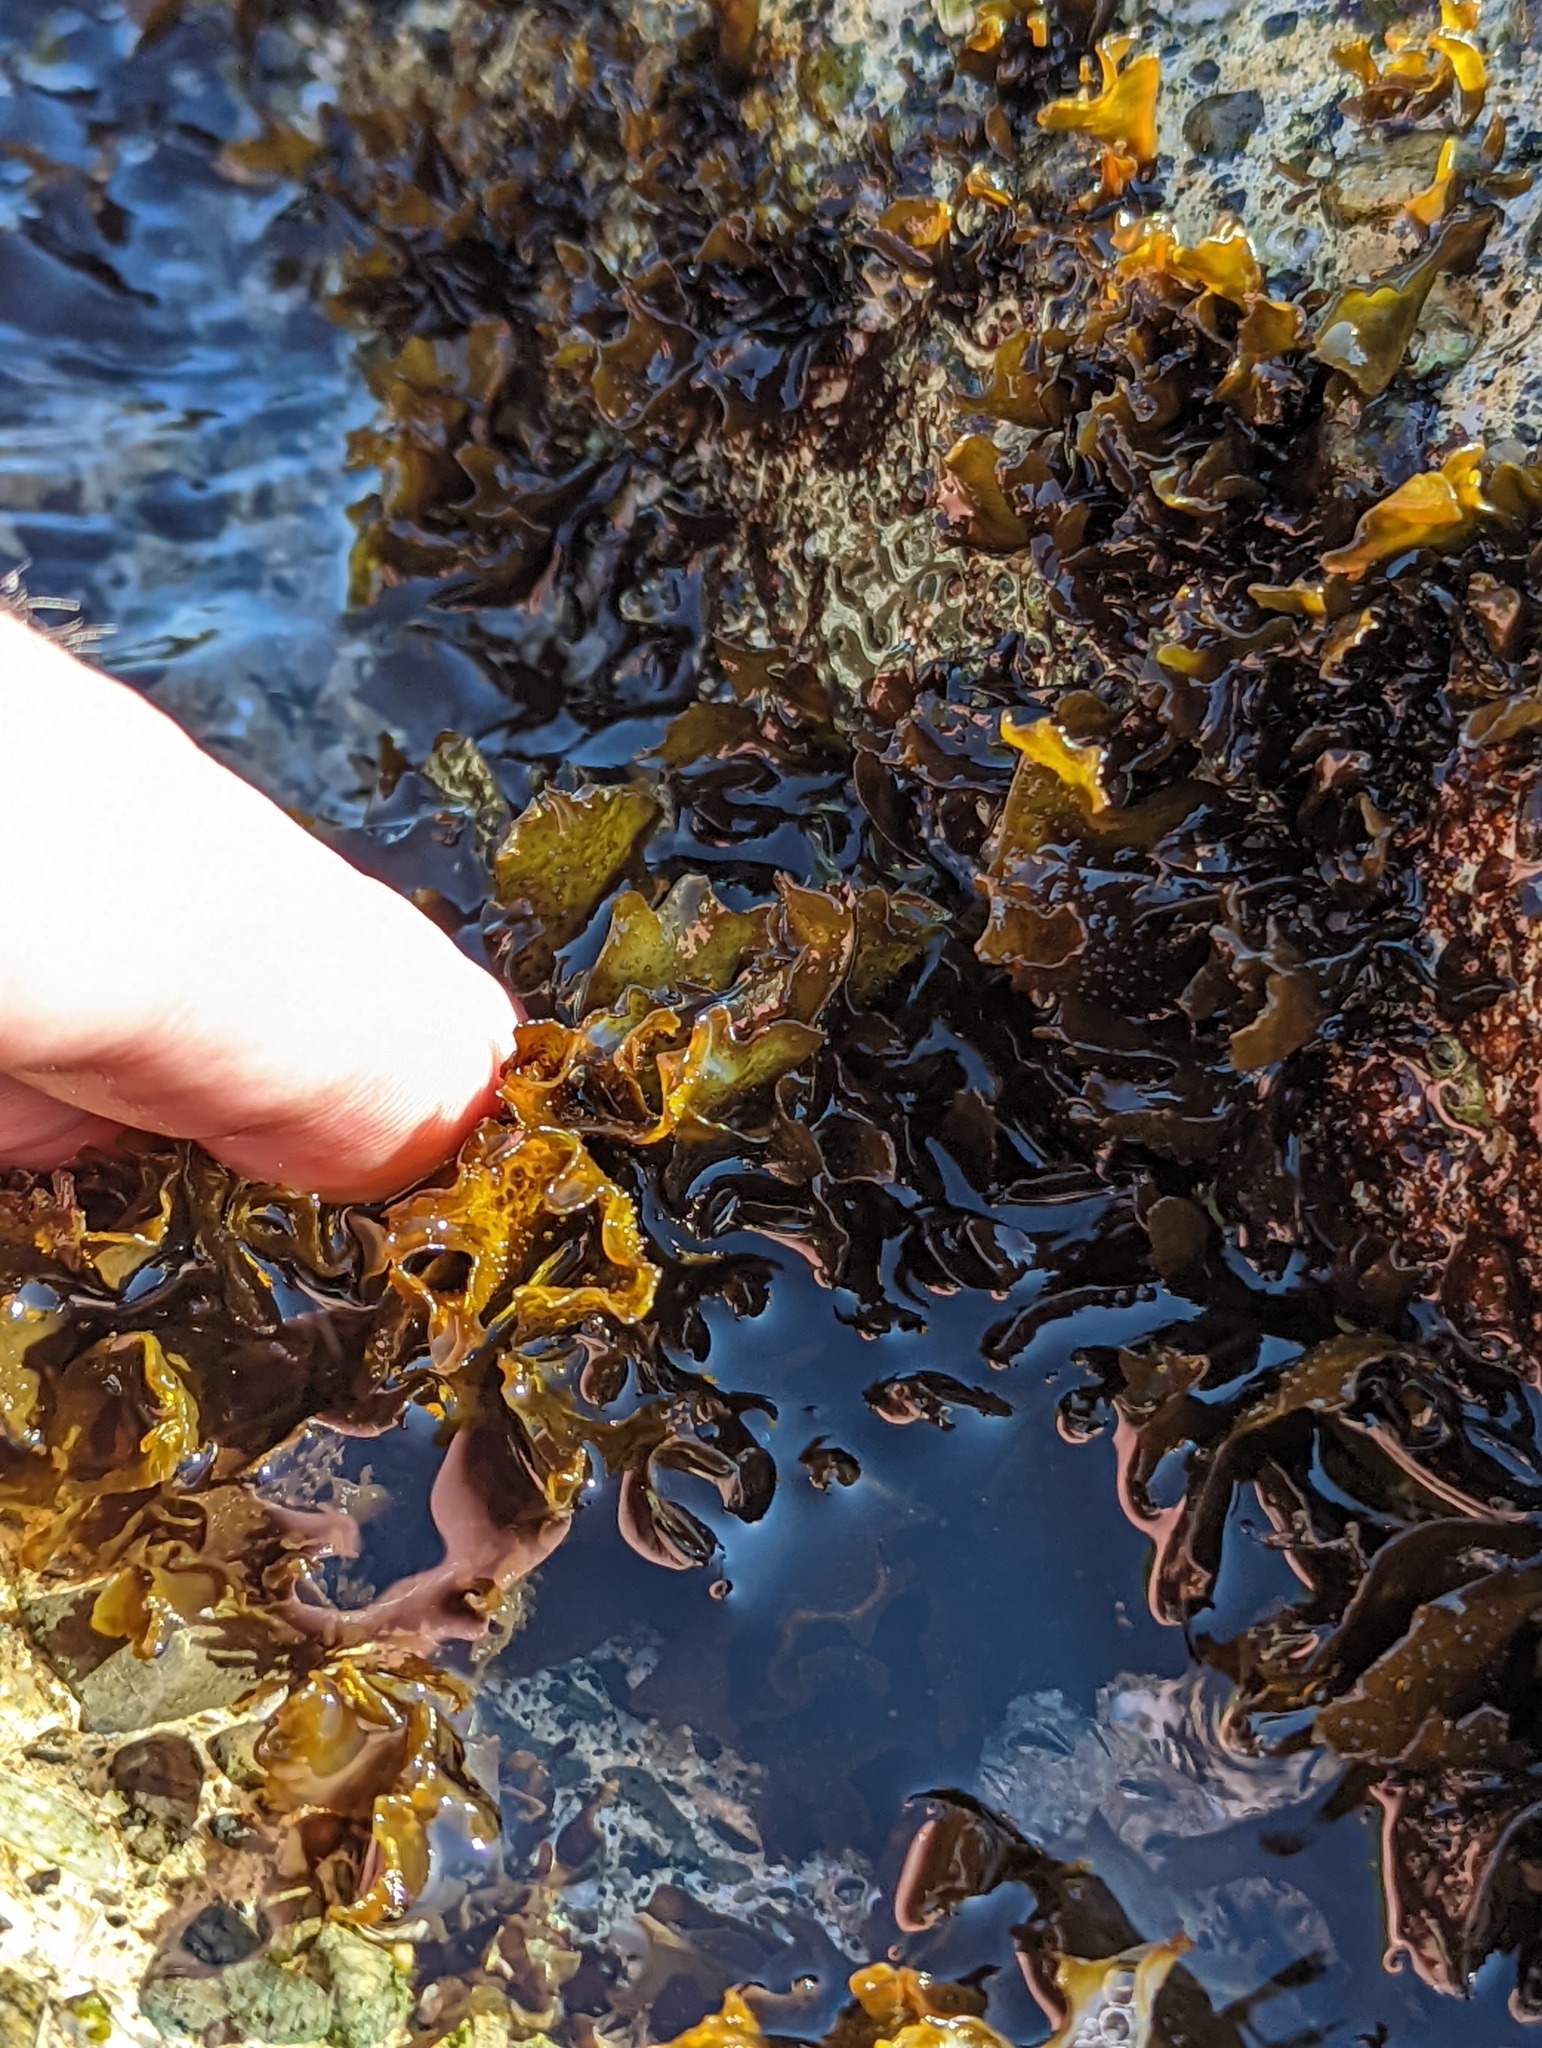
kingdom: Plantae
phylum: Rhodophyta
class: Florideophyceae
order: Gigartinales
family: Phyllophoraceae
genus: Mastocarpus
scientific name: Mastocarpus papillatus
